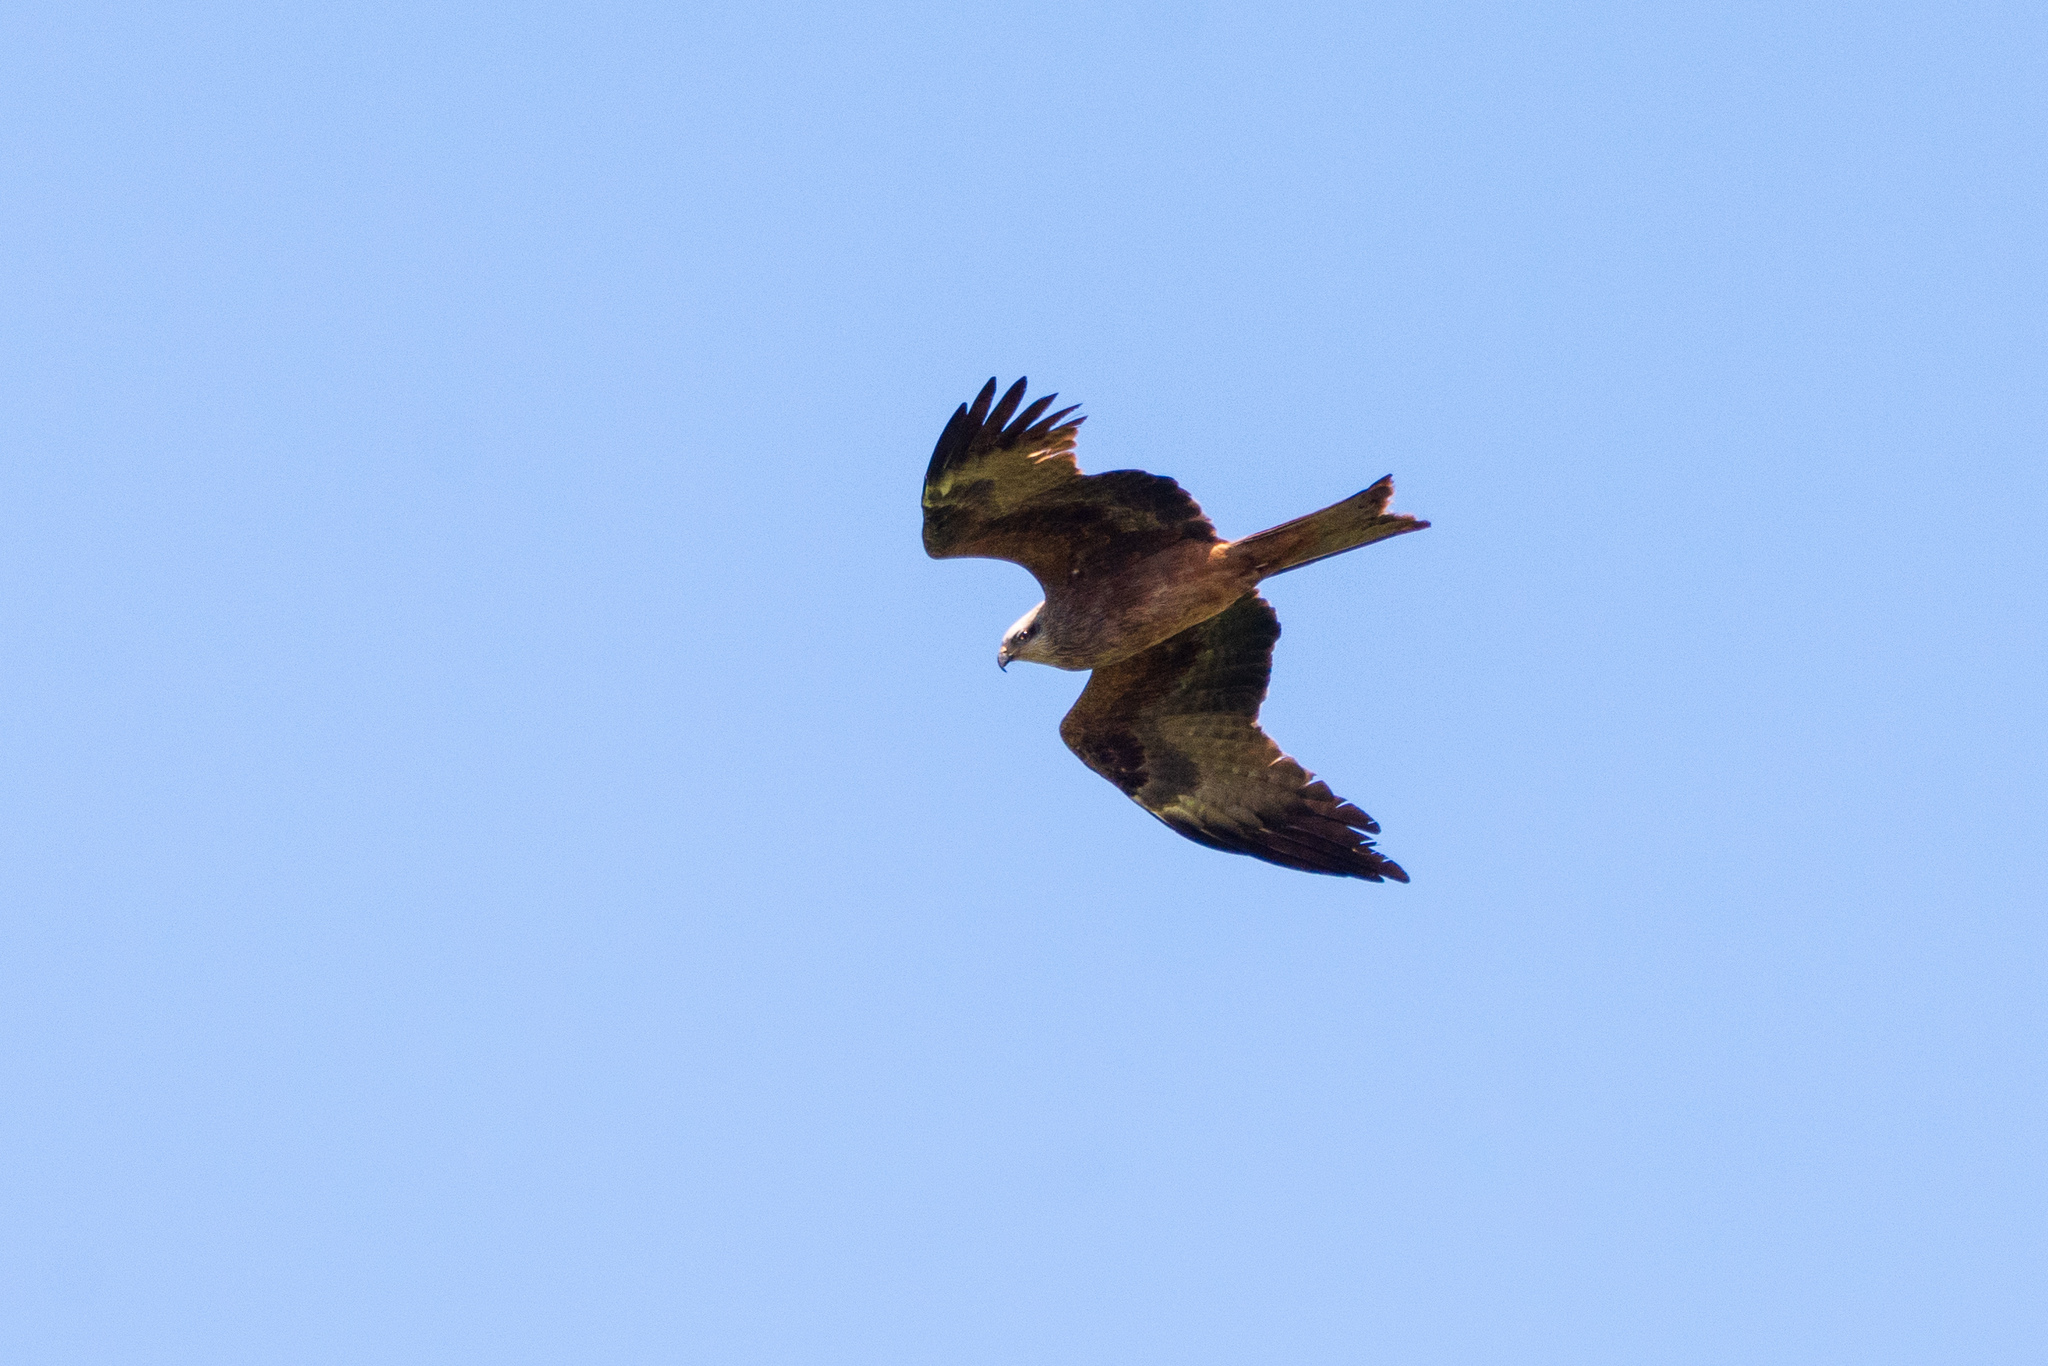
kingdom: Animalia
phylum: Chordata
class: Aves
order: Accipitriformes
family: Accipitridae
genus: Milvus
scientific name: Milvus migrans
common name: Black kite
